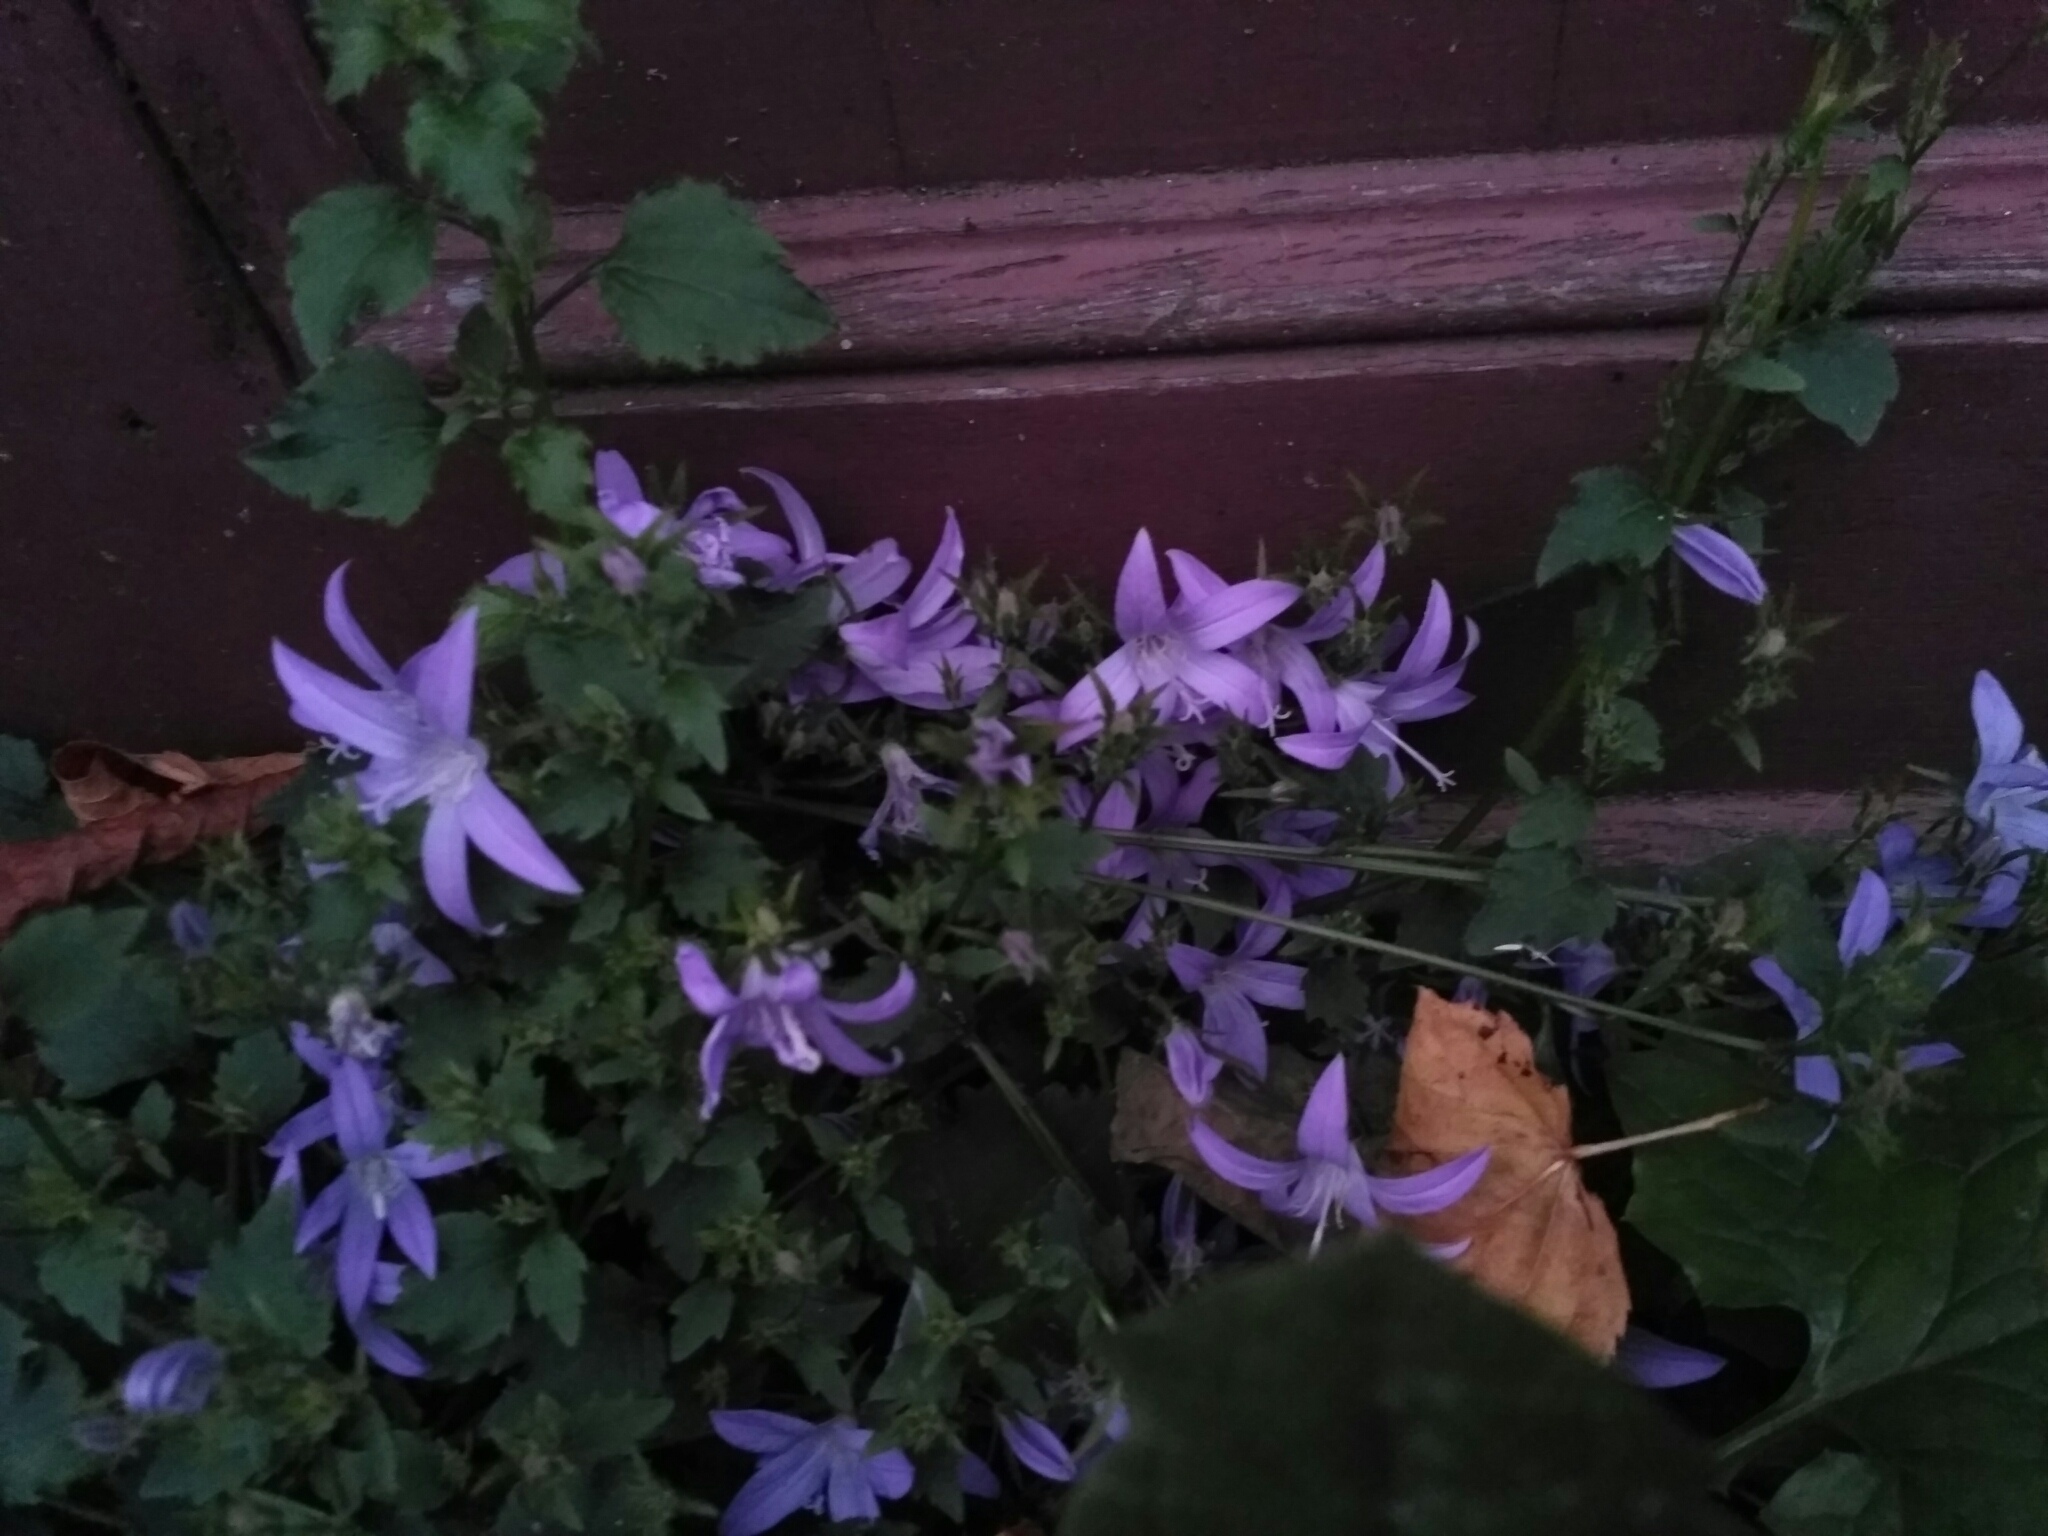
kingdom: Plantae
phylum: Tracheophyta
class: Magnoliopsida
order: Asterales
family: Campanulaceae
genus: Campanula
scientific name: Campanula poscharskyana
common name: Trailing bellflower
